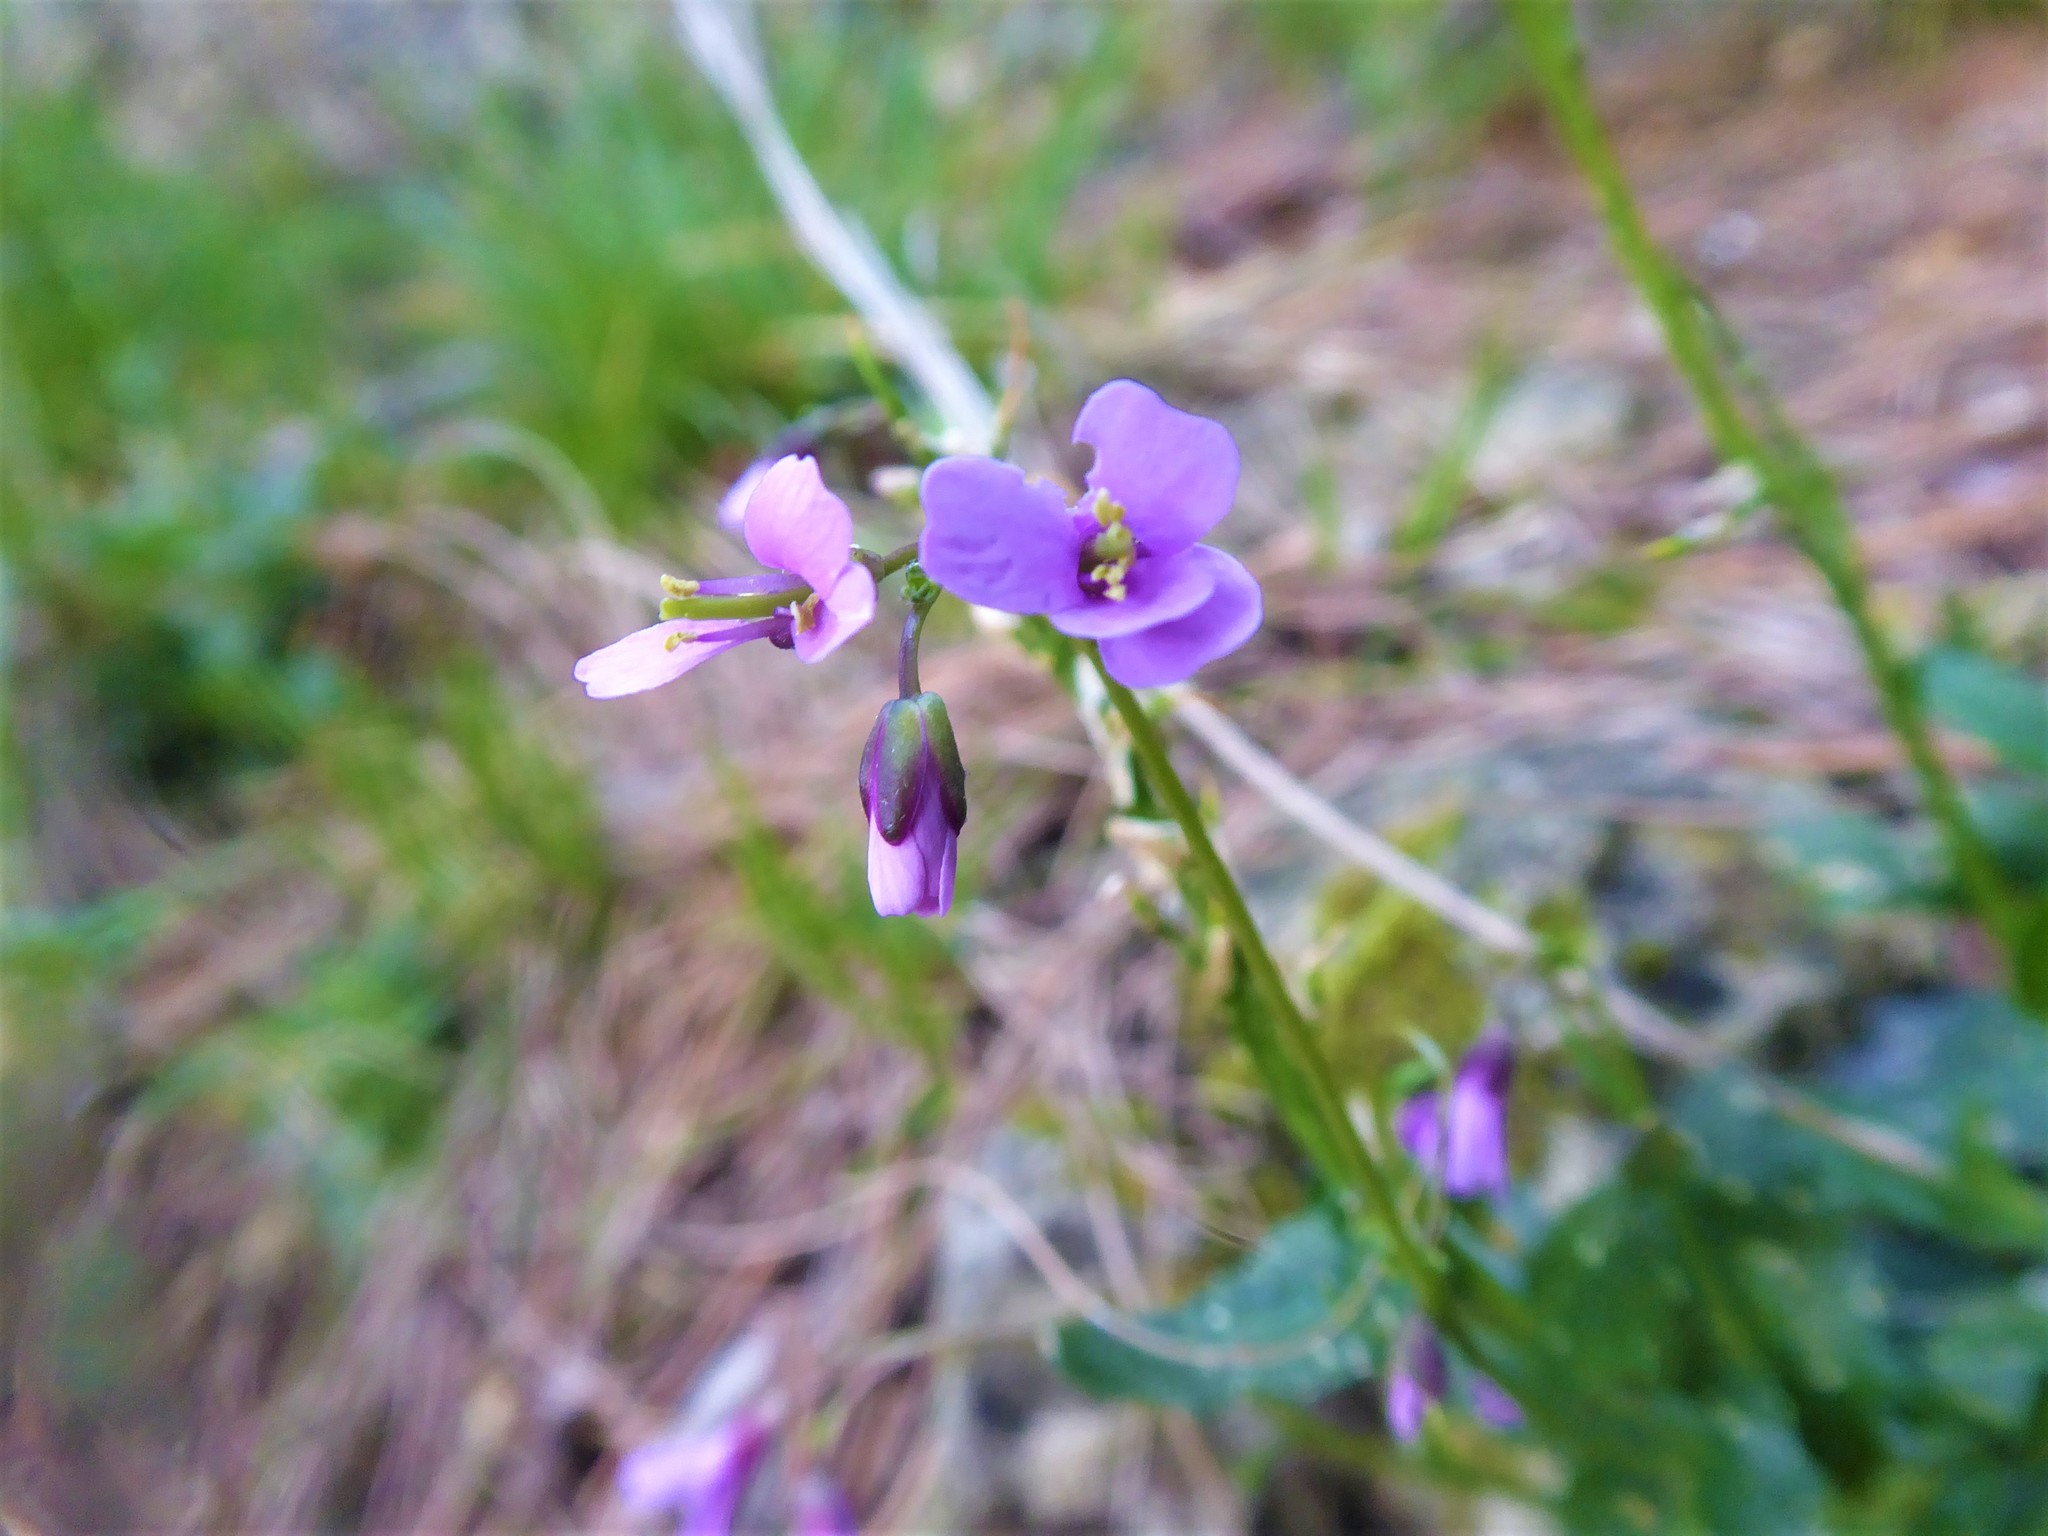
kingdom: Plantae
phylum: Tracheophyta
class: Magnoliopsida
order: Brassicales
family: Brassicaceae
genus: Arabis
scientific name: Arabis collina
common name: Rosy cress
